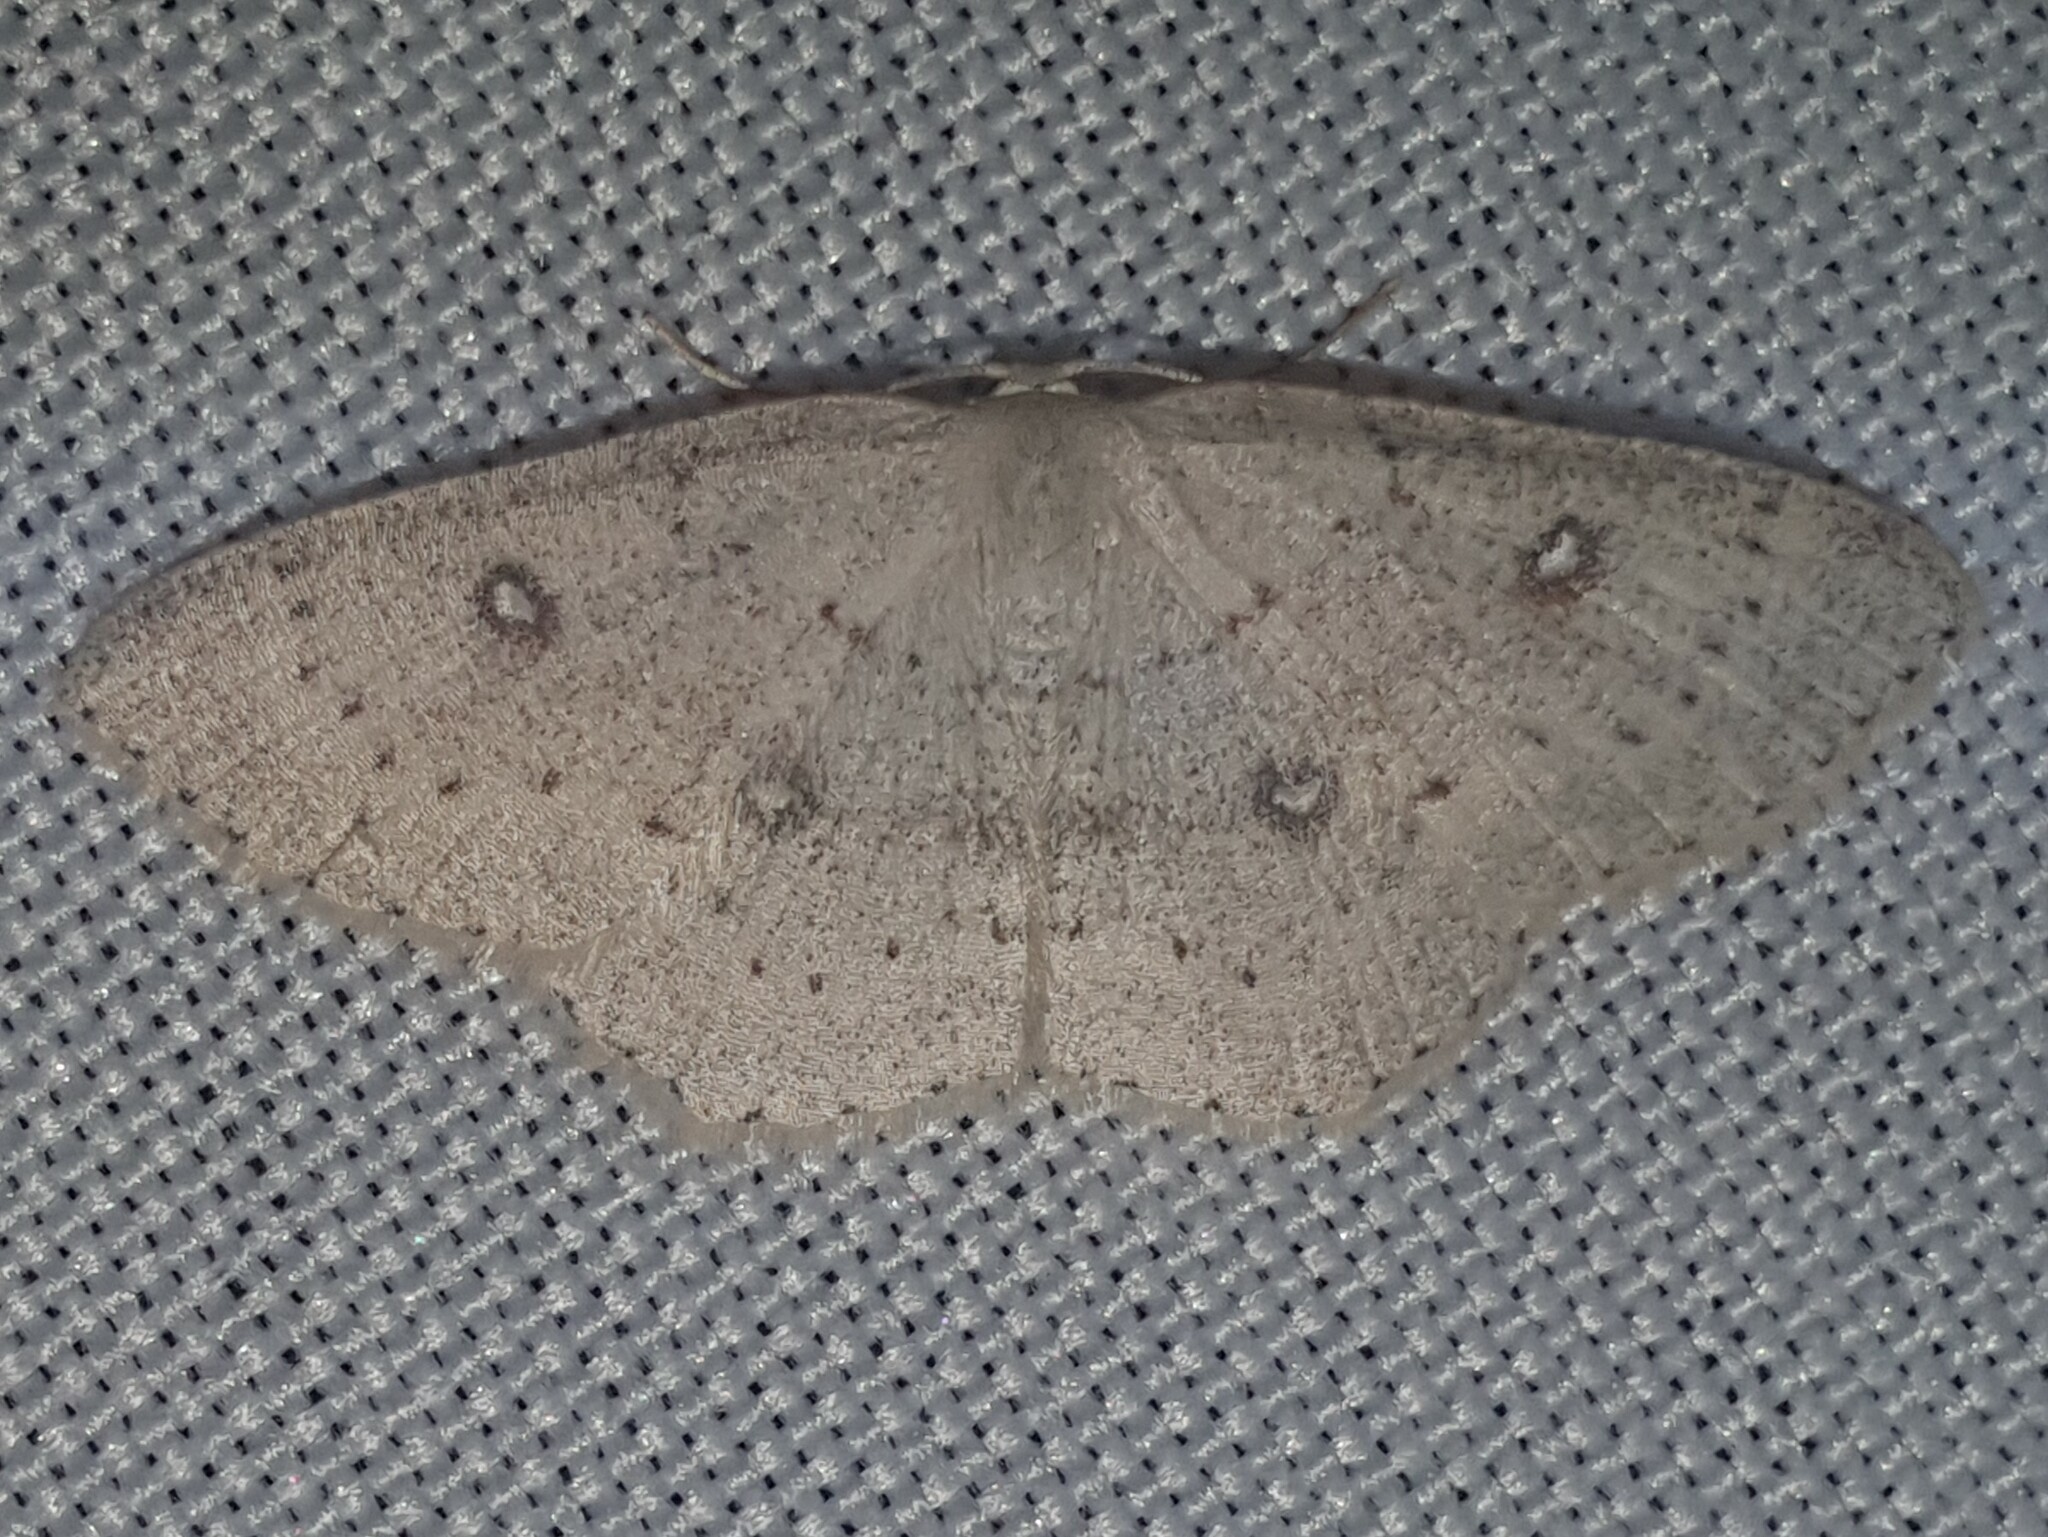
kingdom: Animalia
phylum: Arthropoda
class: Insecta
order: Lepidoptera
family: Geometridae
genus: Cyclophora
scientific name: Cyclophora albipunctata
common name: Birch mocha
